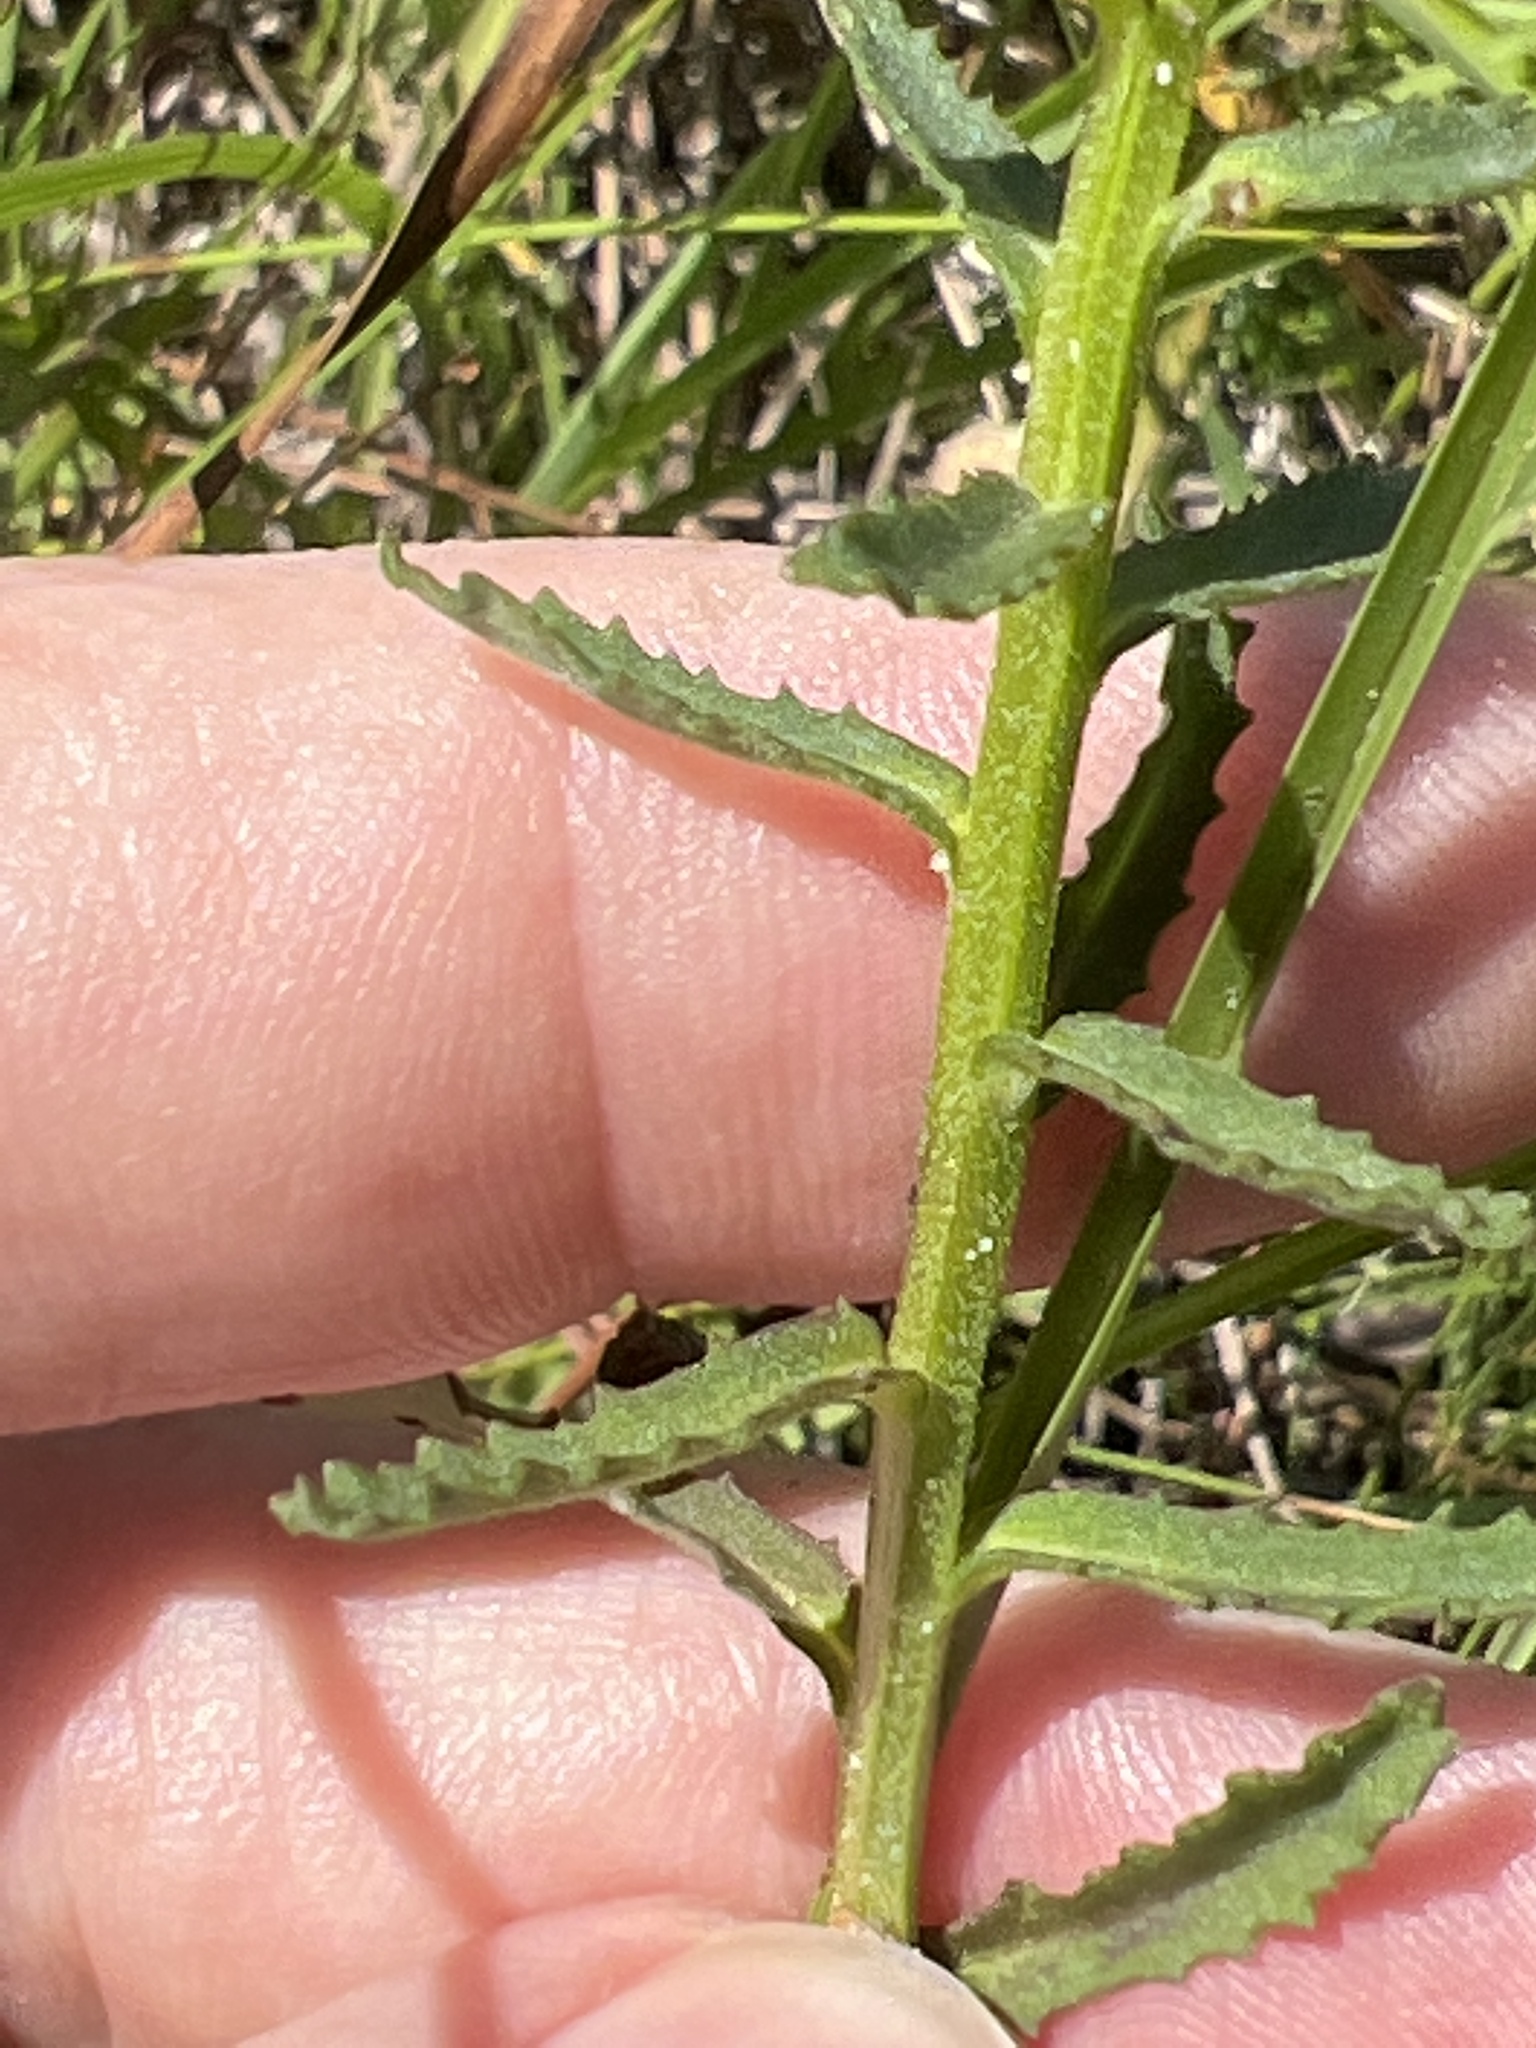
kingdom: Plantae
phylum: Tracheophyta
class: Magnoliopsida
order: Asterales
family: Campanulaceae
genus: Lobelia
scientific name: Lobelia brevifolia
